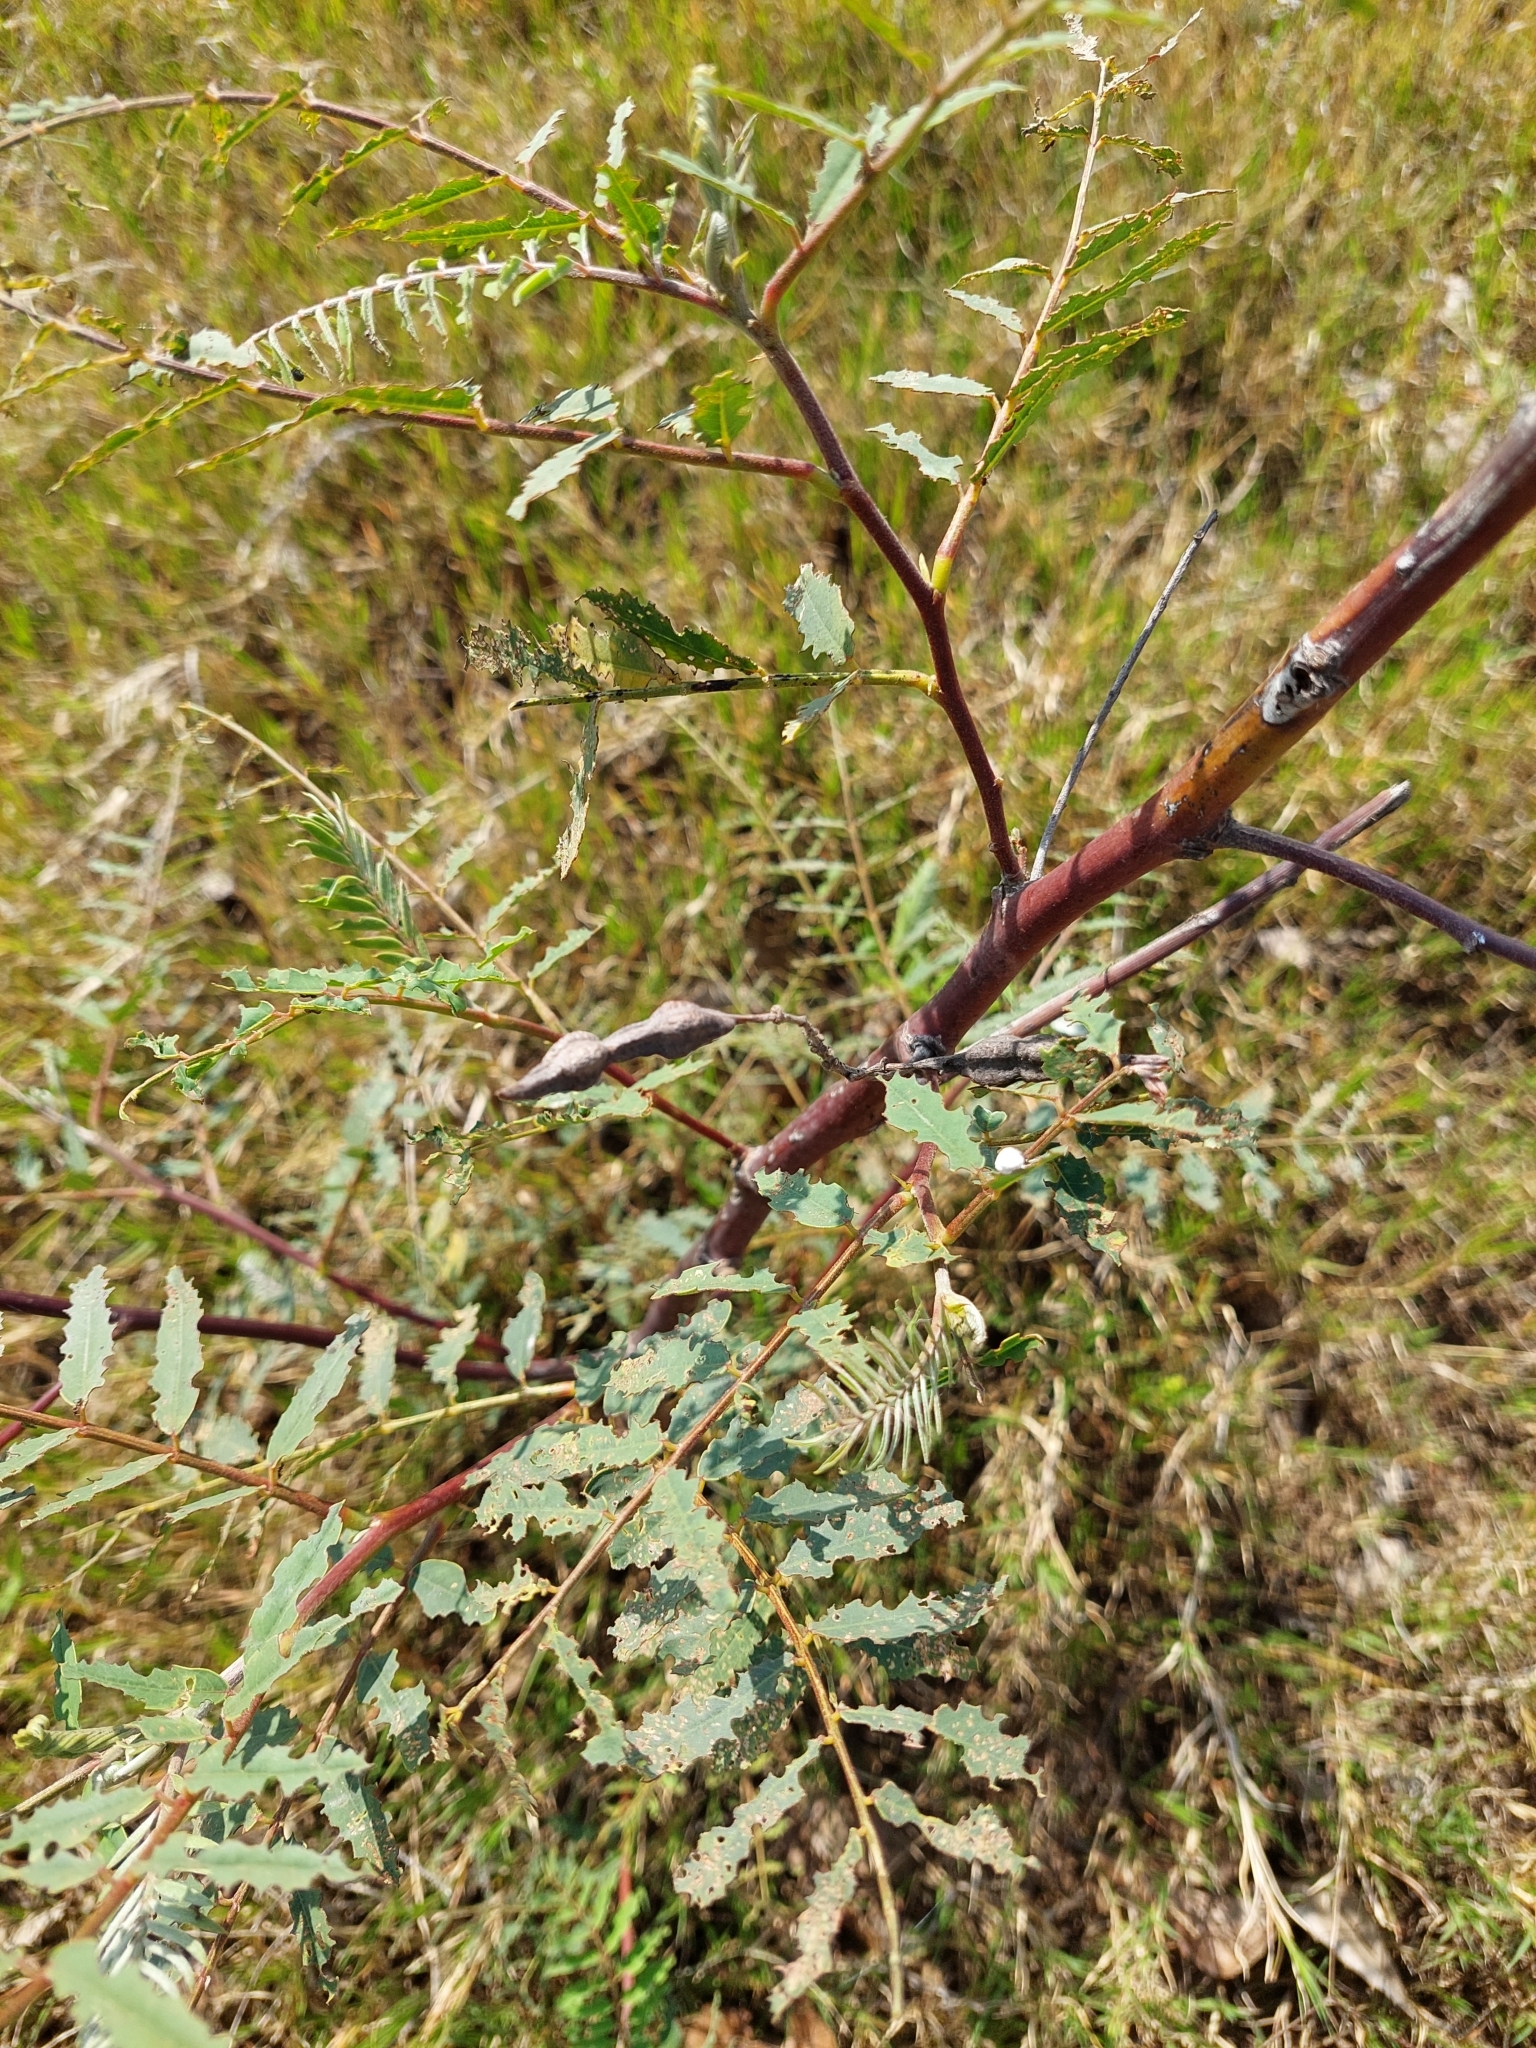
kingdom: Plantae
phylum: Tracheophyta
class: Magnoliopsida
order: Fabales
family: Fabaceae
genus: Sesbania
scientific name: Sesbania virgata
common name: Wand riverhemp
